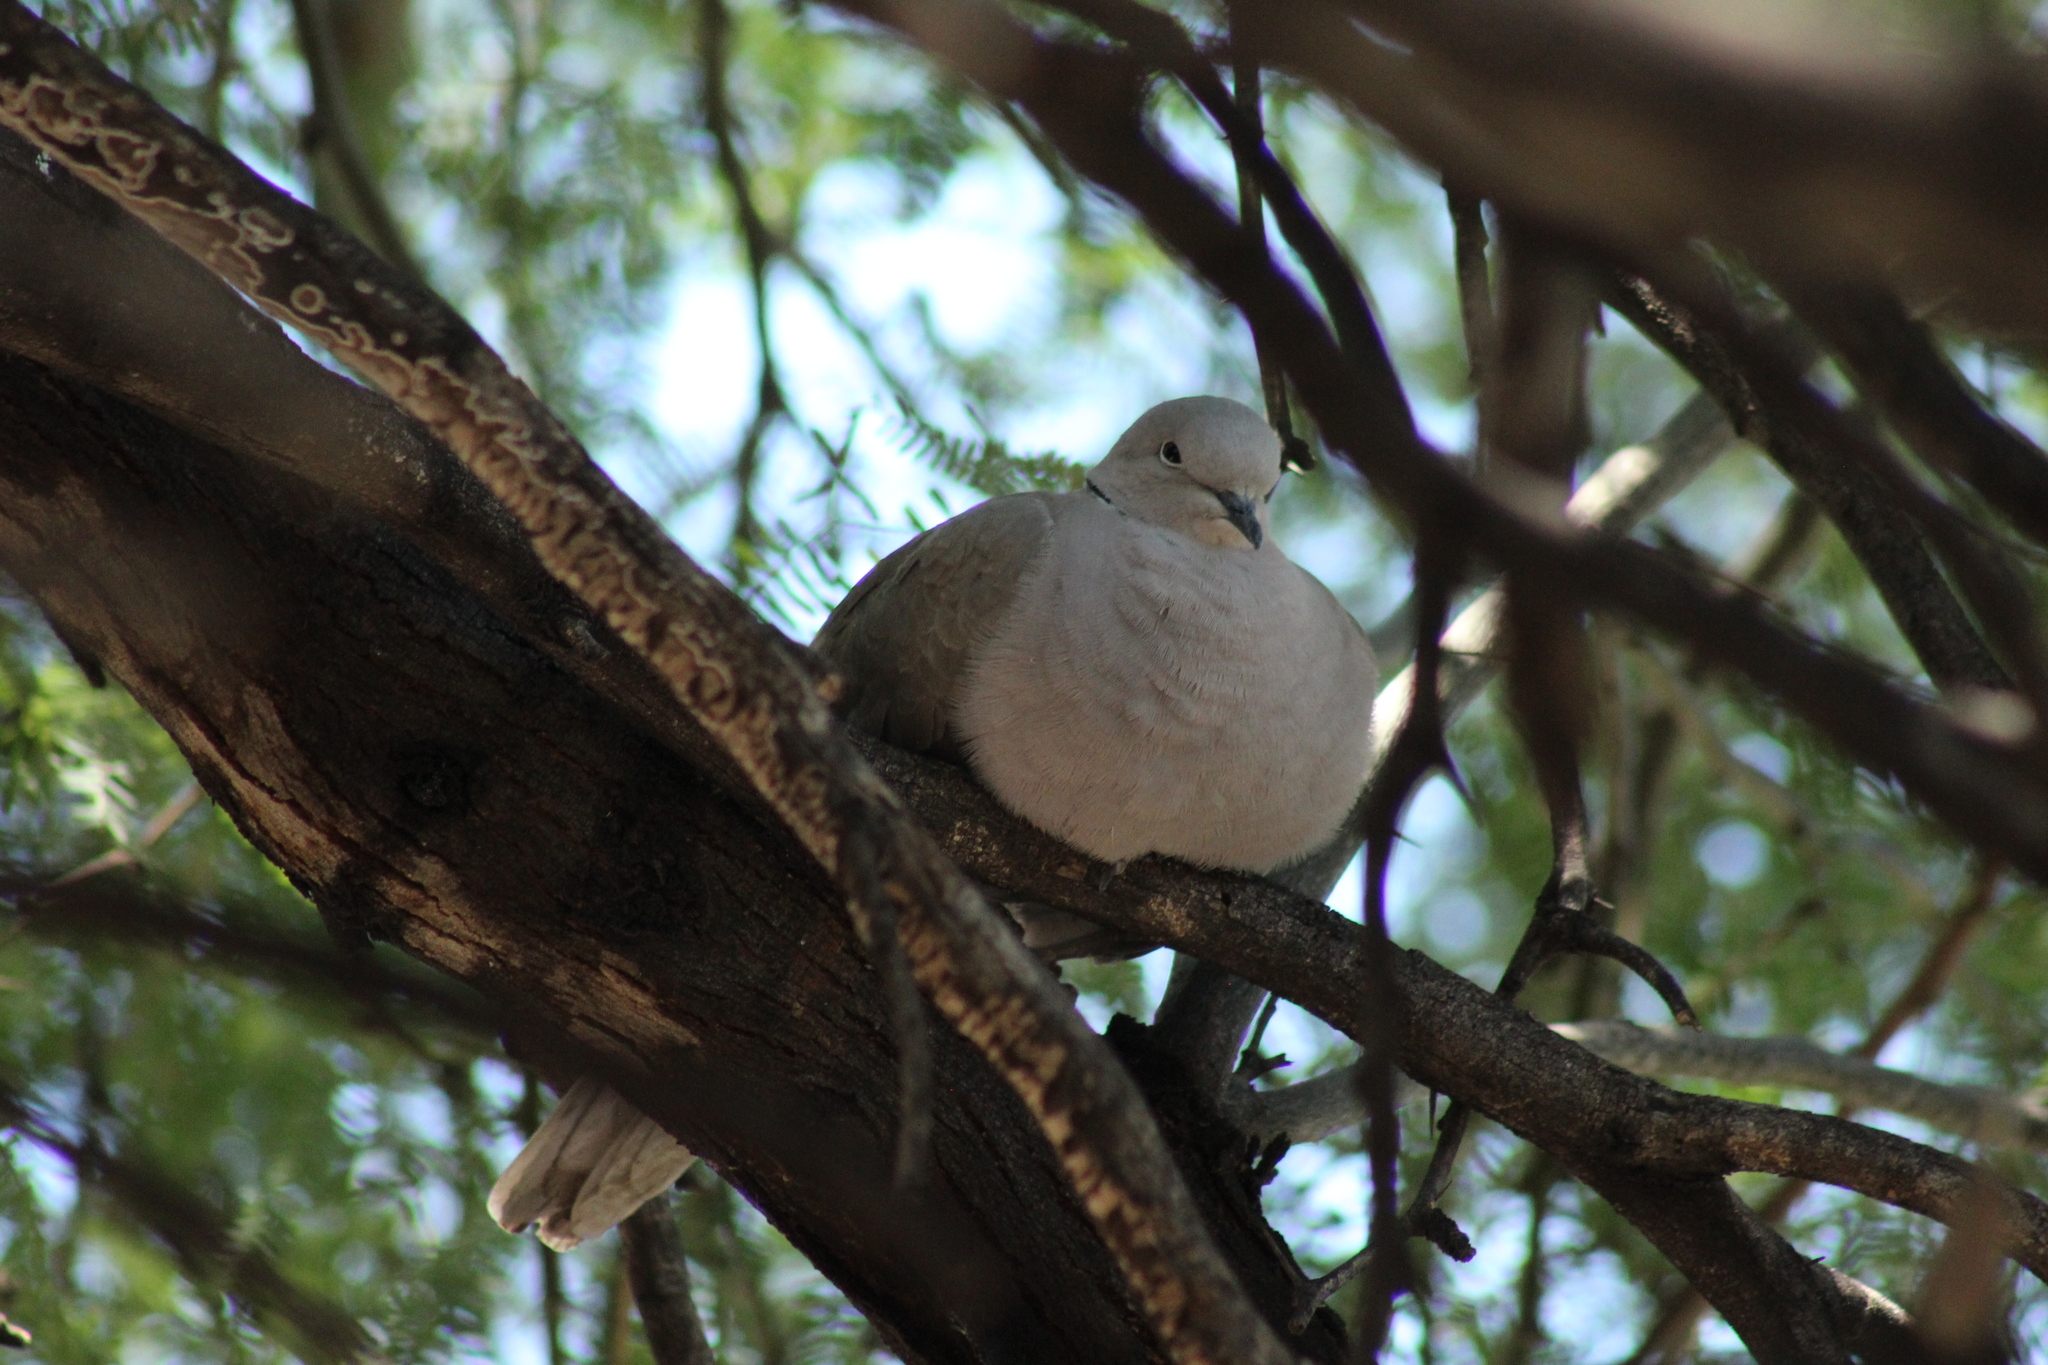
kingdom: Animalia
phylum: Chordata
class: Aves
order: Columbiformes
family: Columbidae
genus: Streptopelia
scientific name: Streptopelia decaocto
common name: Eurasian collared dove
